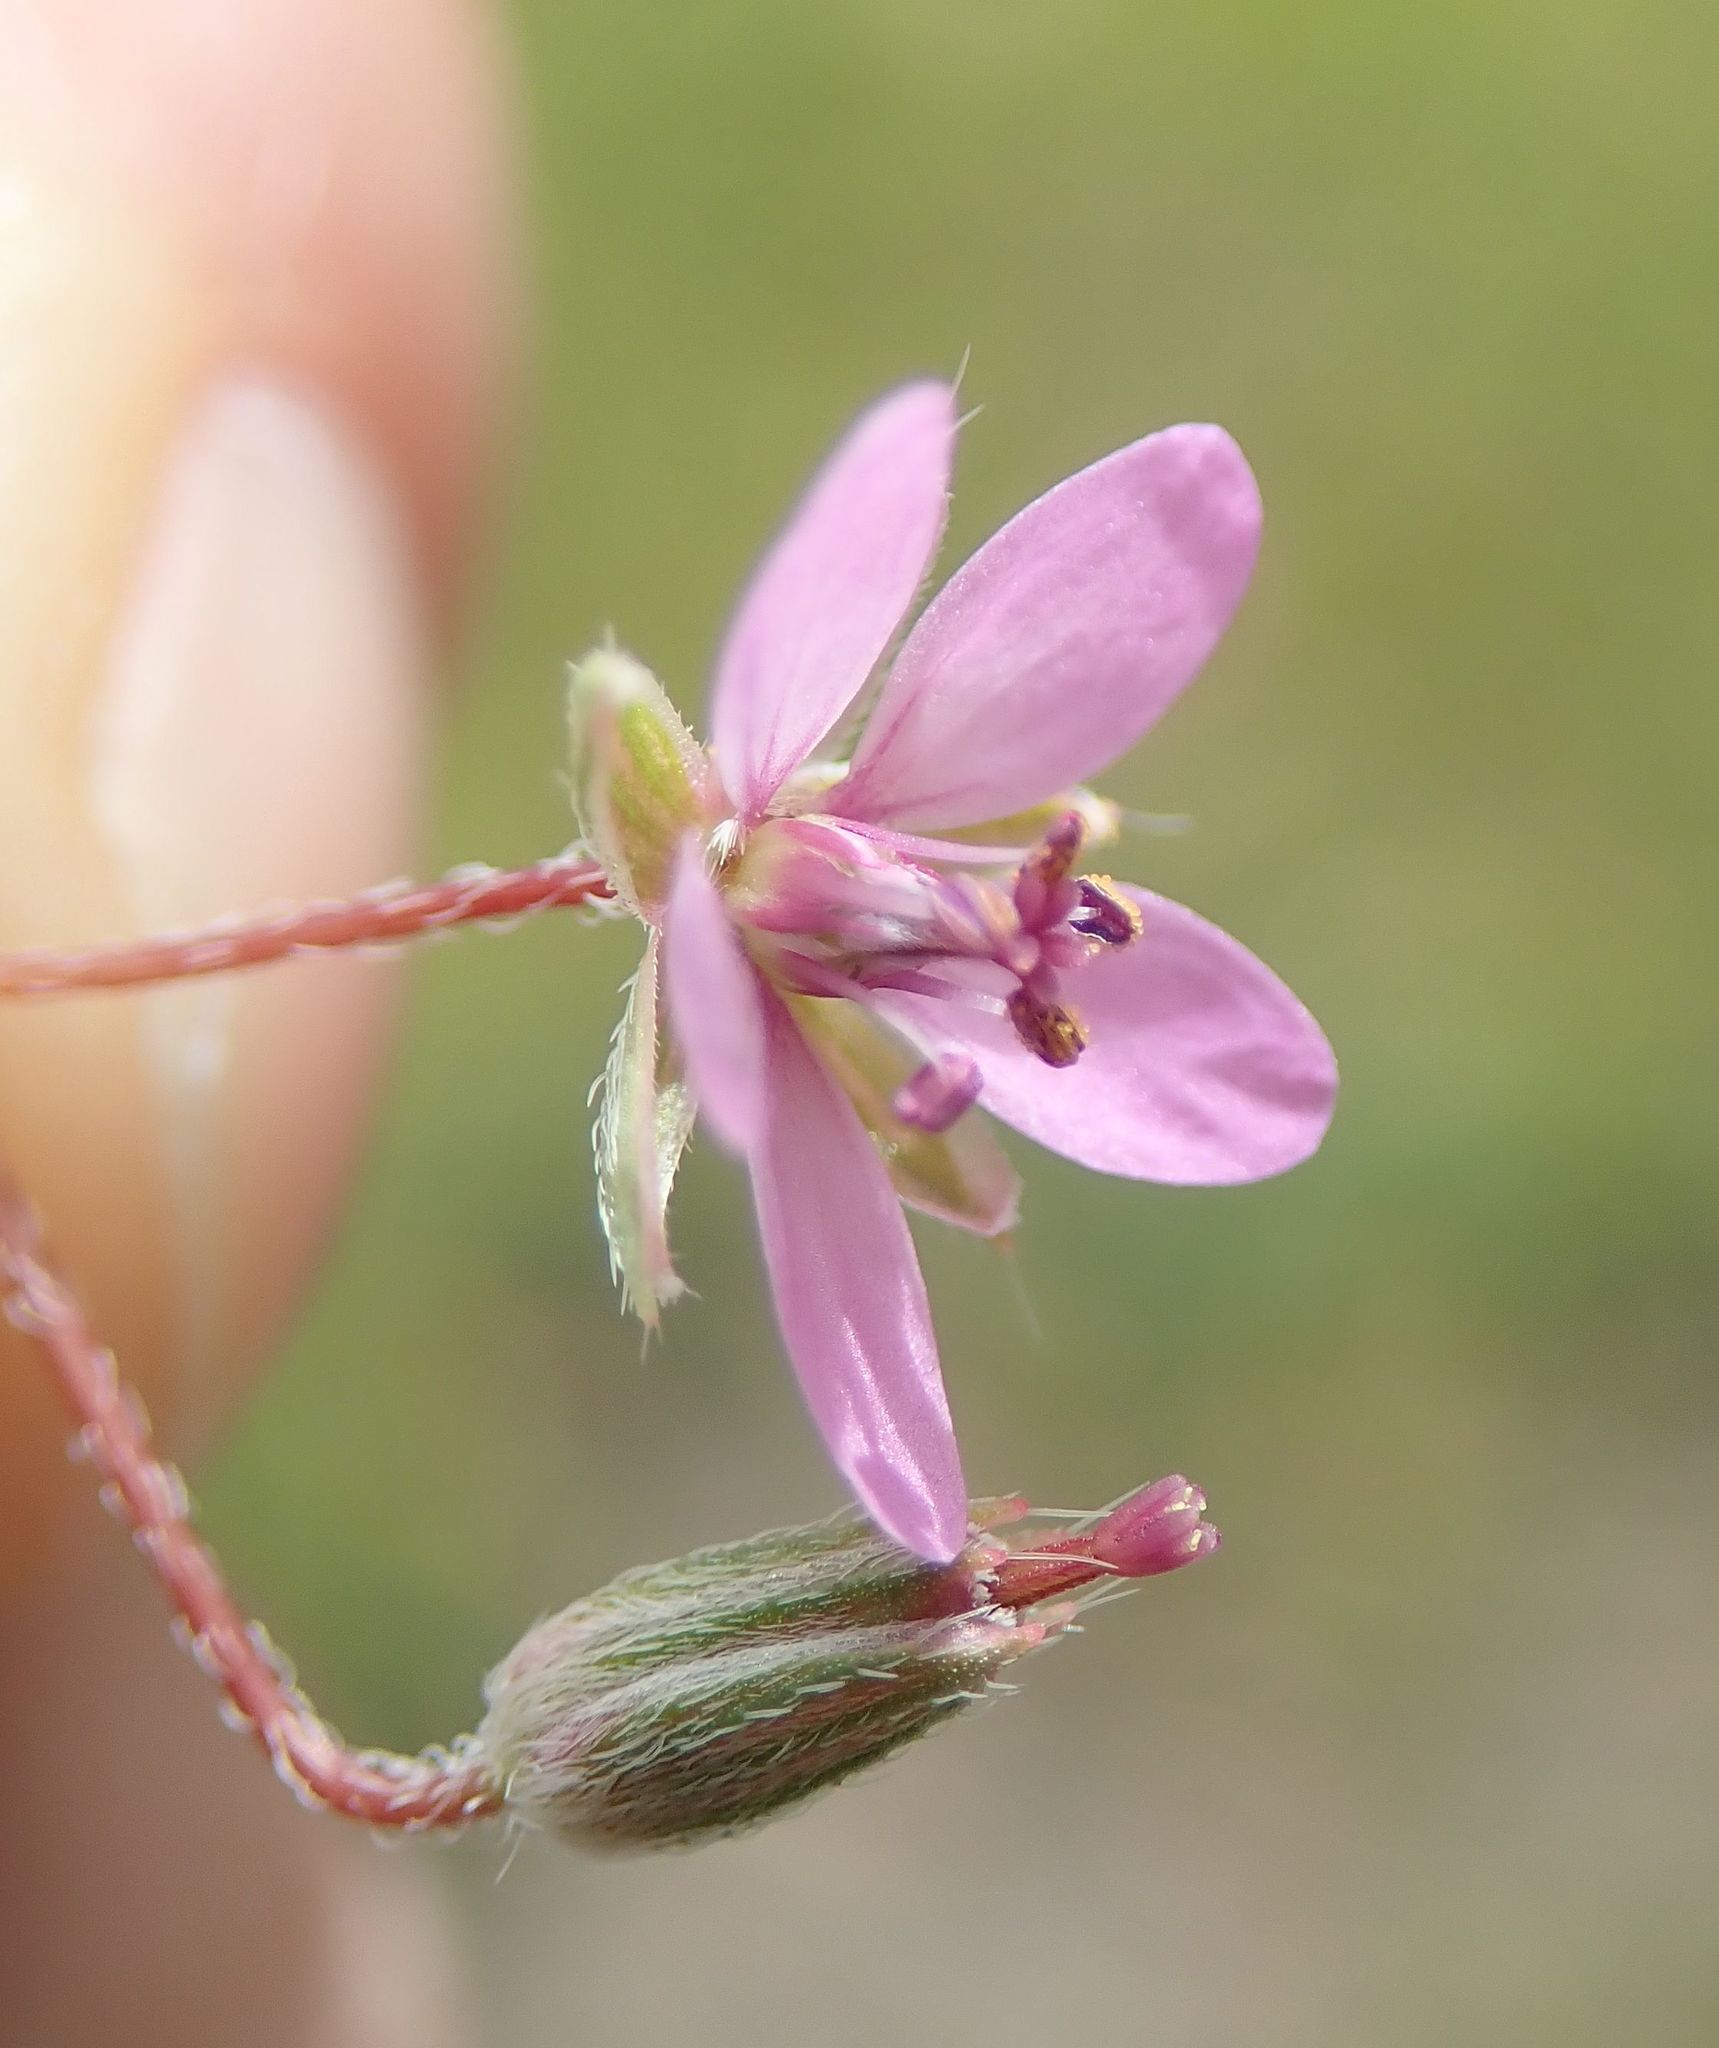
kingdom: Plantae
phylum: Tracheophyta
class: Magnoliopsida
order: Geraniales
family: Geraniaceae
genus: Erodium
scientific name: Erodium cicutarium
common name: Common stork's-bill
